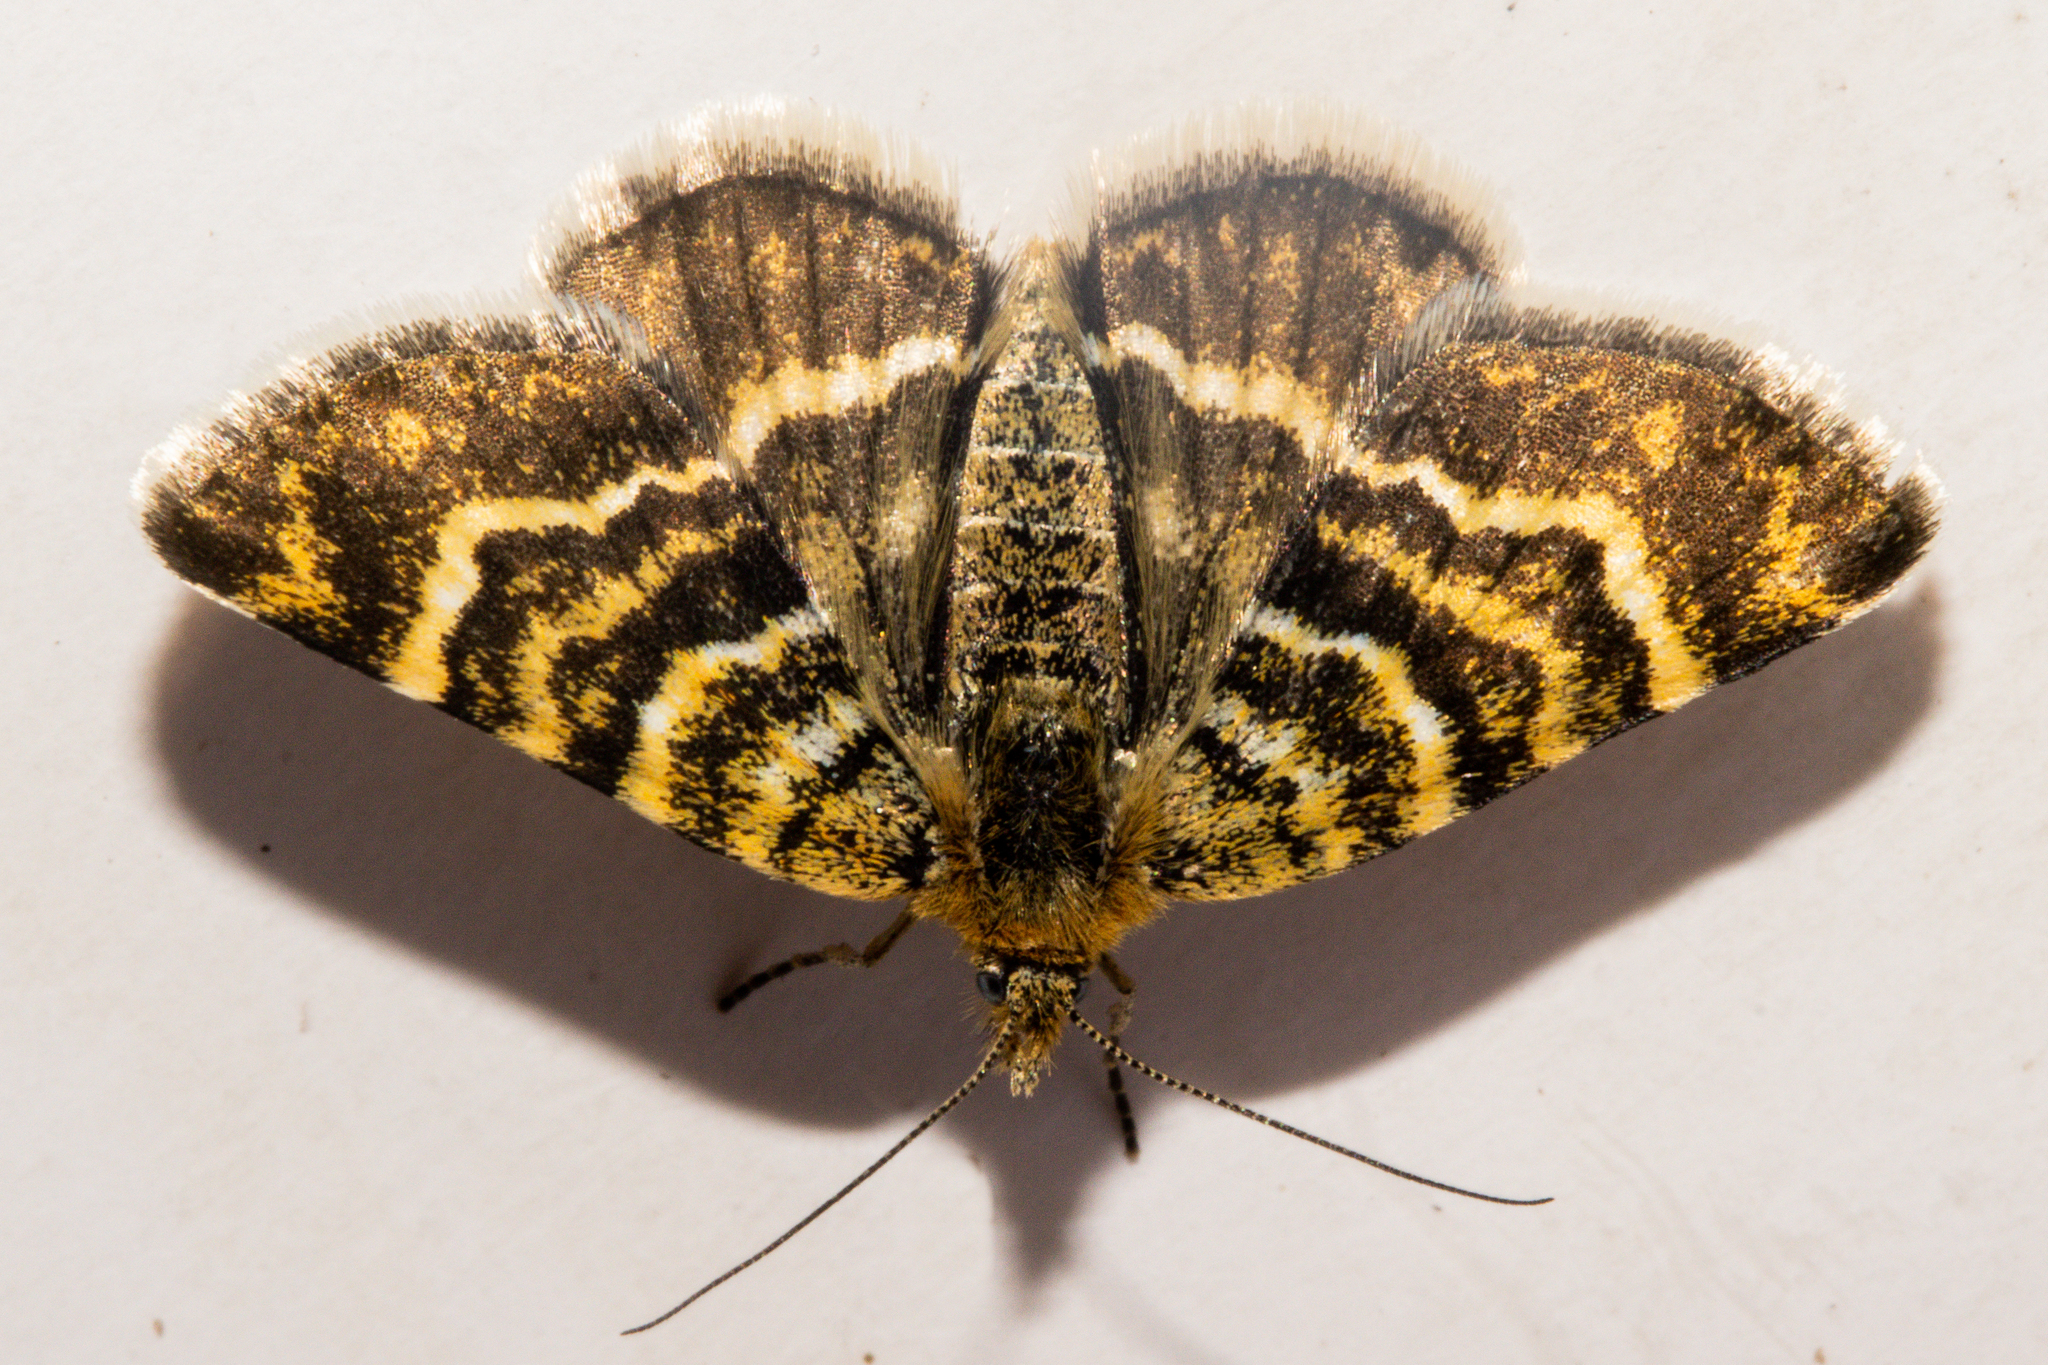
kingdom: Animalia
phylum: Arthropoda
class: Insecta
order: Lepidoptera
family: Geometridae
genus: Notoreas
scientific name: Notoreas mechanitis
